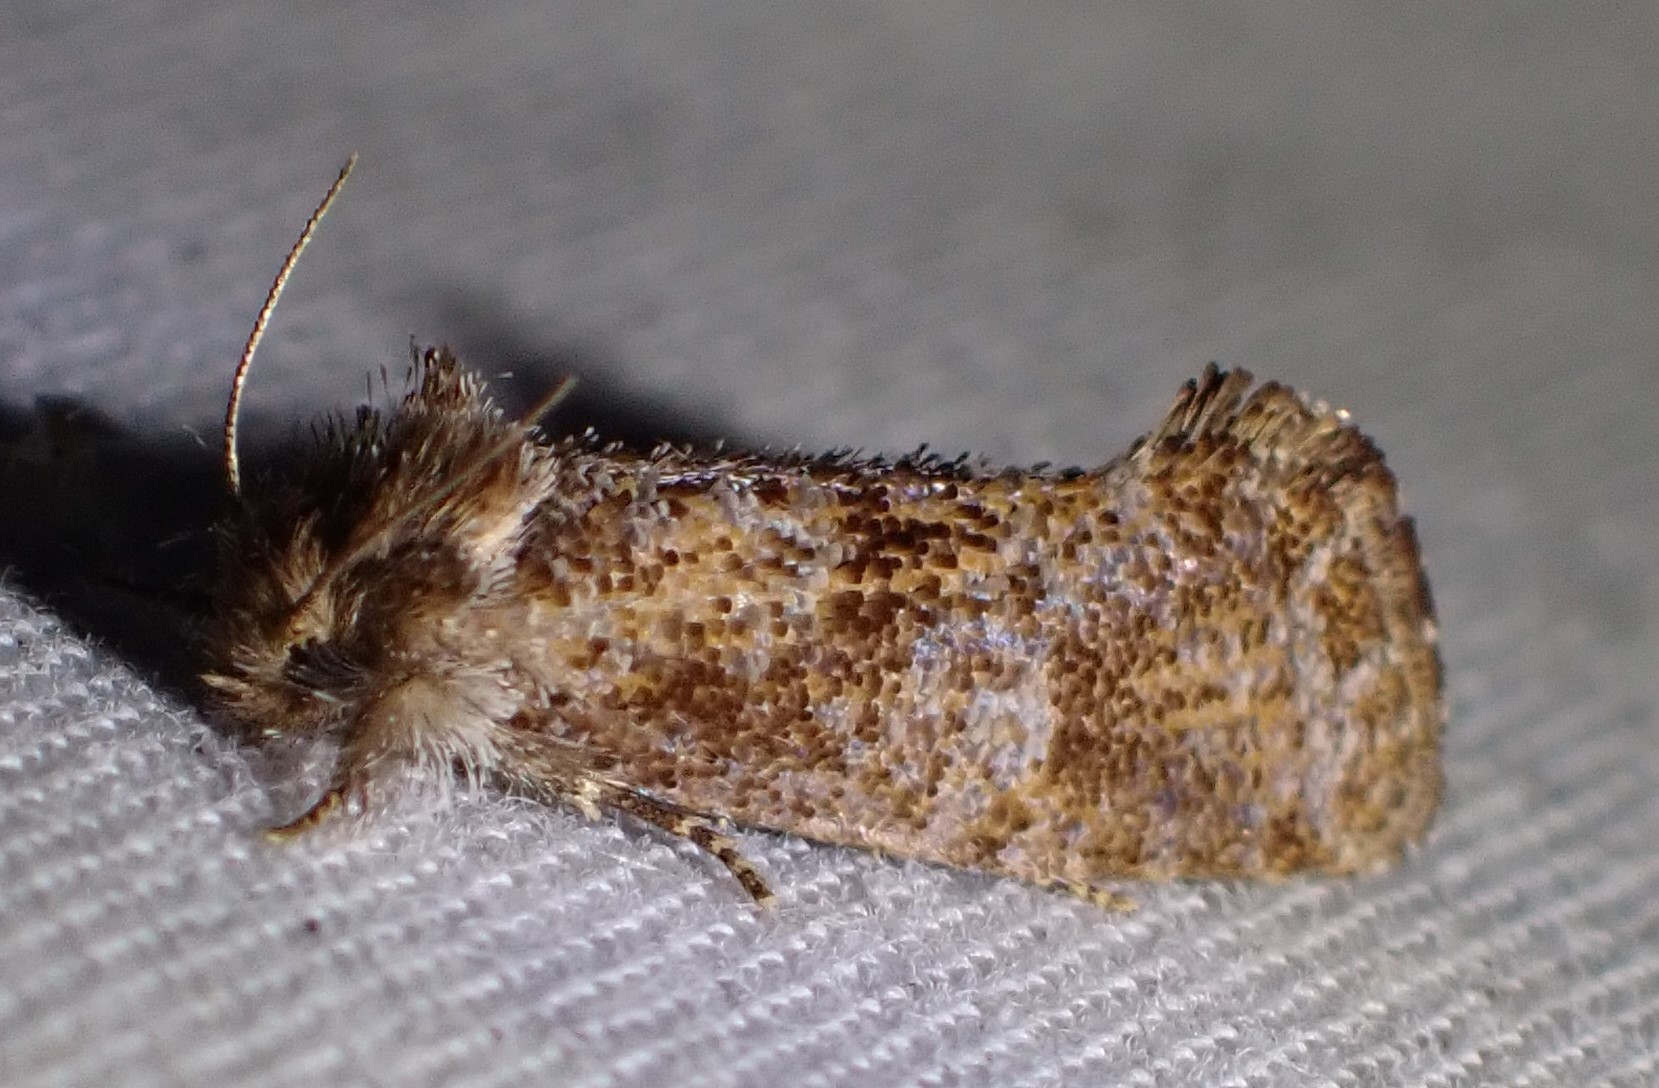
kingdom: Animalia
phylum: Arthropoda
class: Insecta
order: Lepidoptera
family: Tineidae
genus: Acrolophus
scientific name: Acrolophus panamae
